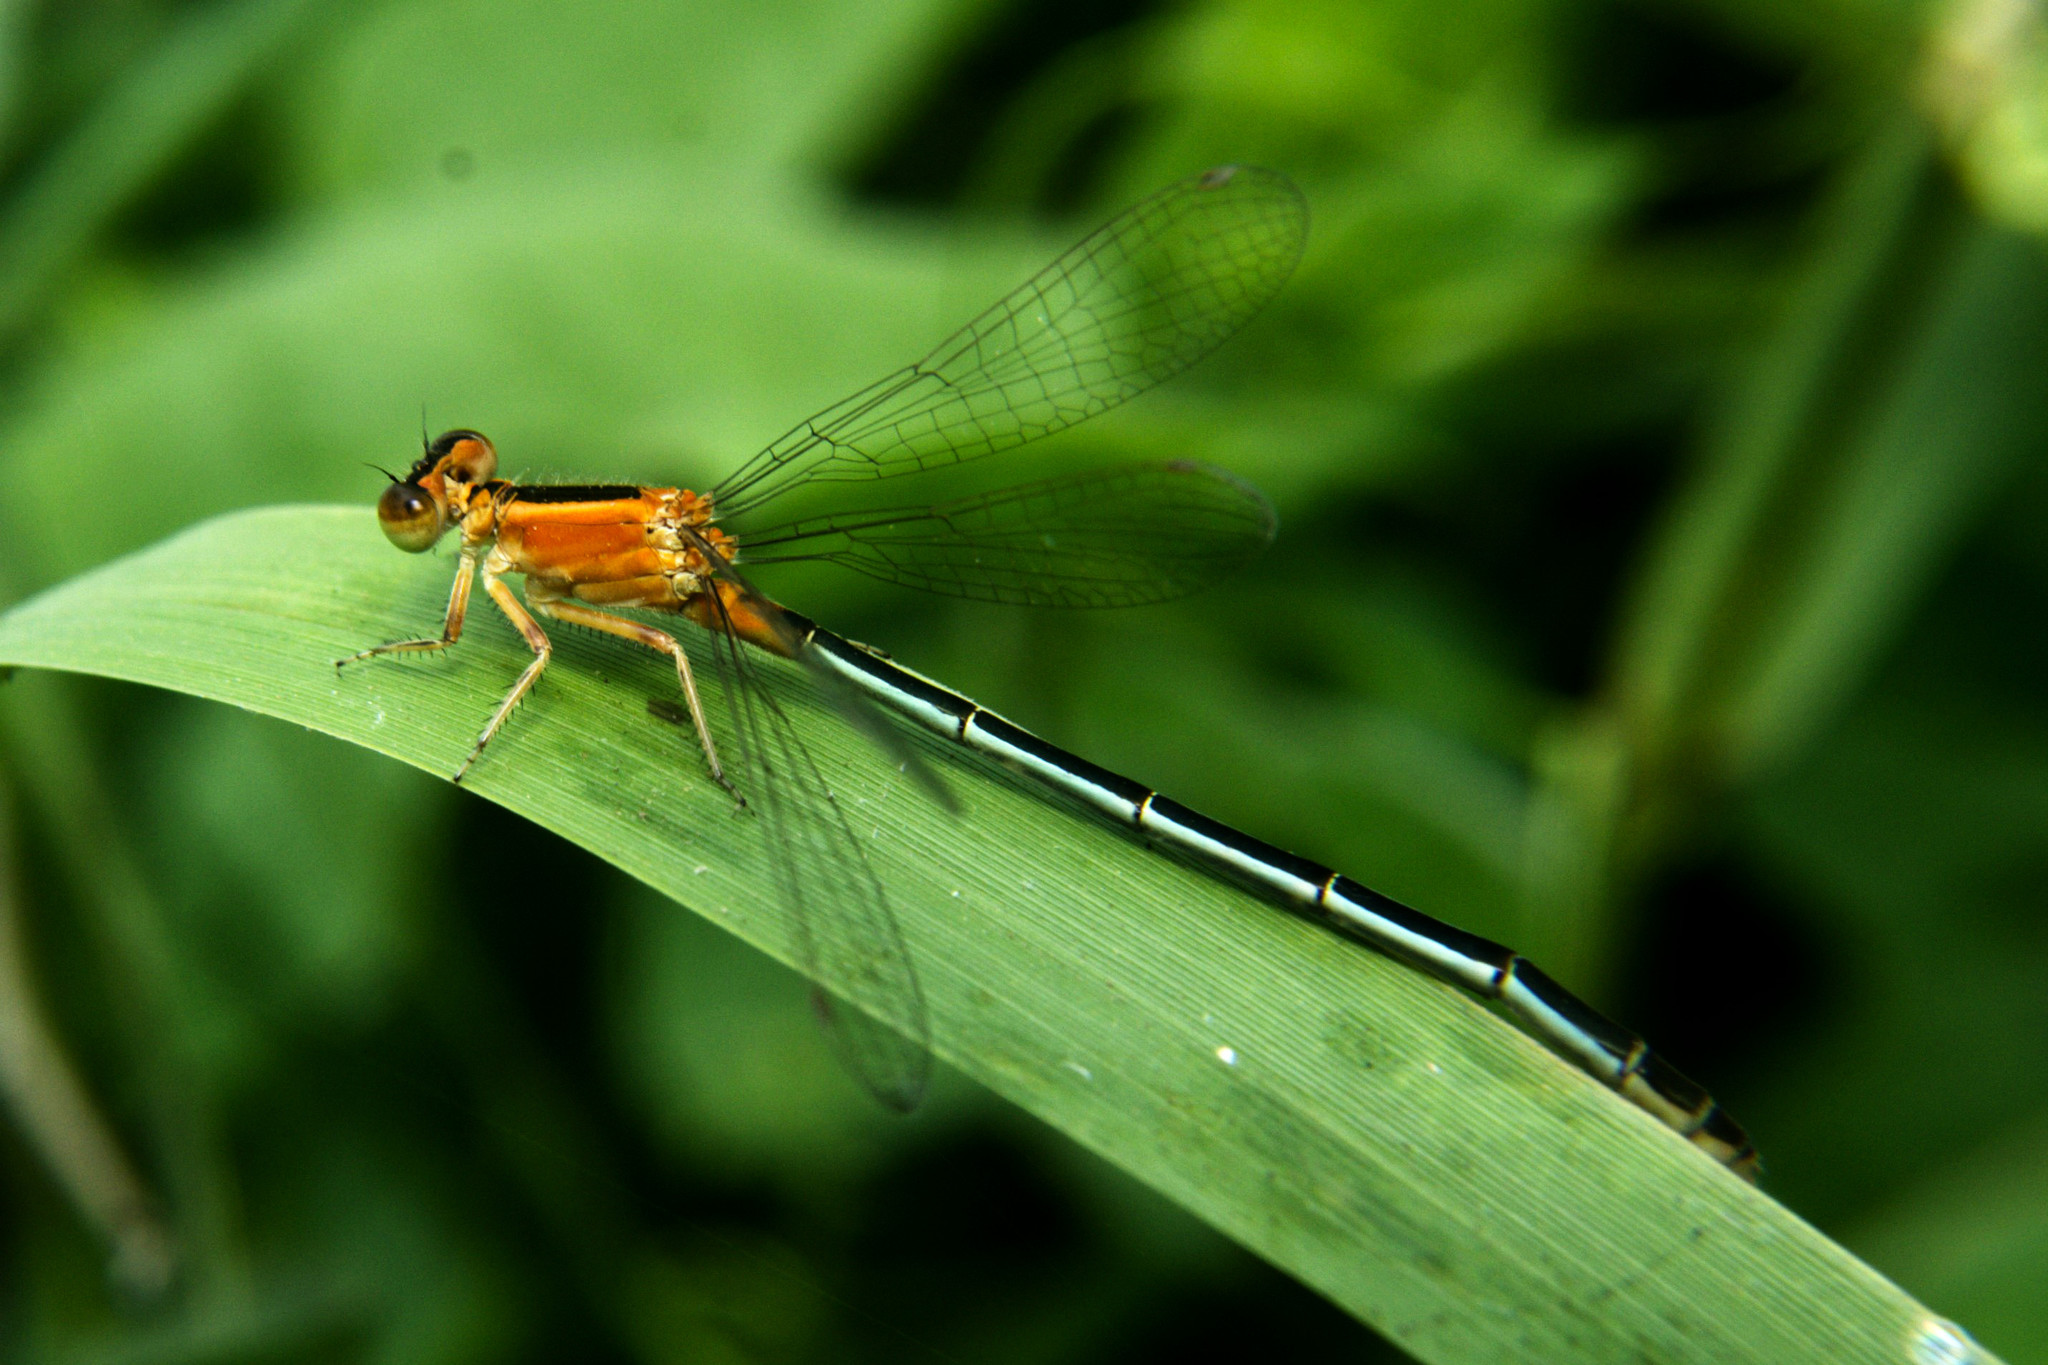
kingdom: Animalia
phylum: Arthropoda
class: Insecta
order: Odonata
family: Coenagrionidae
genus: Ischnura
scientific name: Ischnura senegalensis
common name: Tropical bluetail
